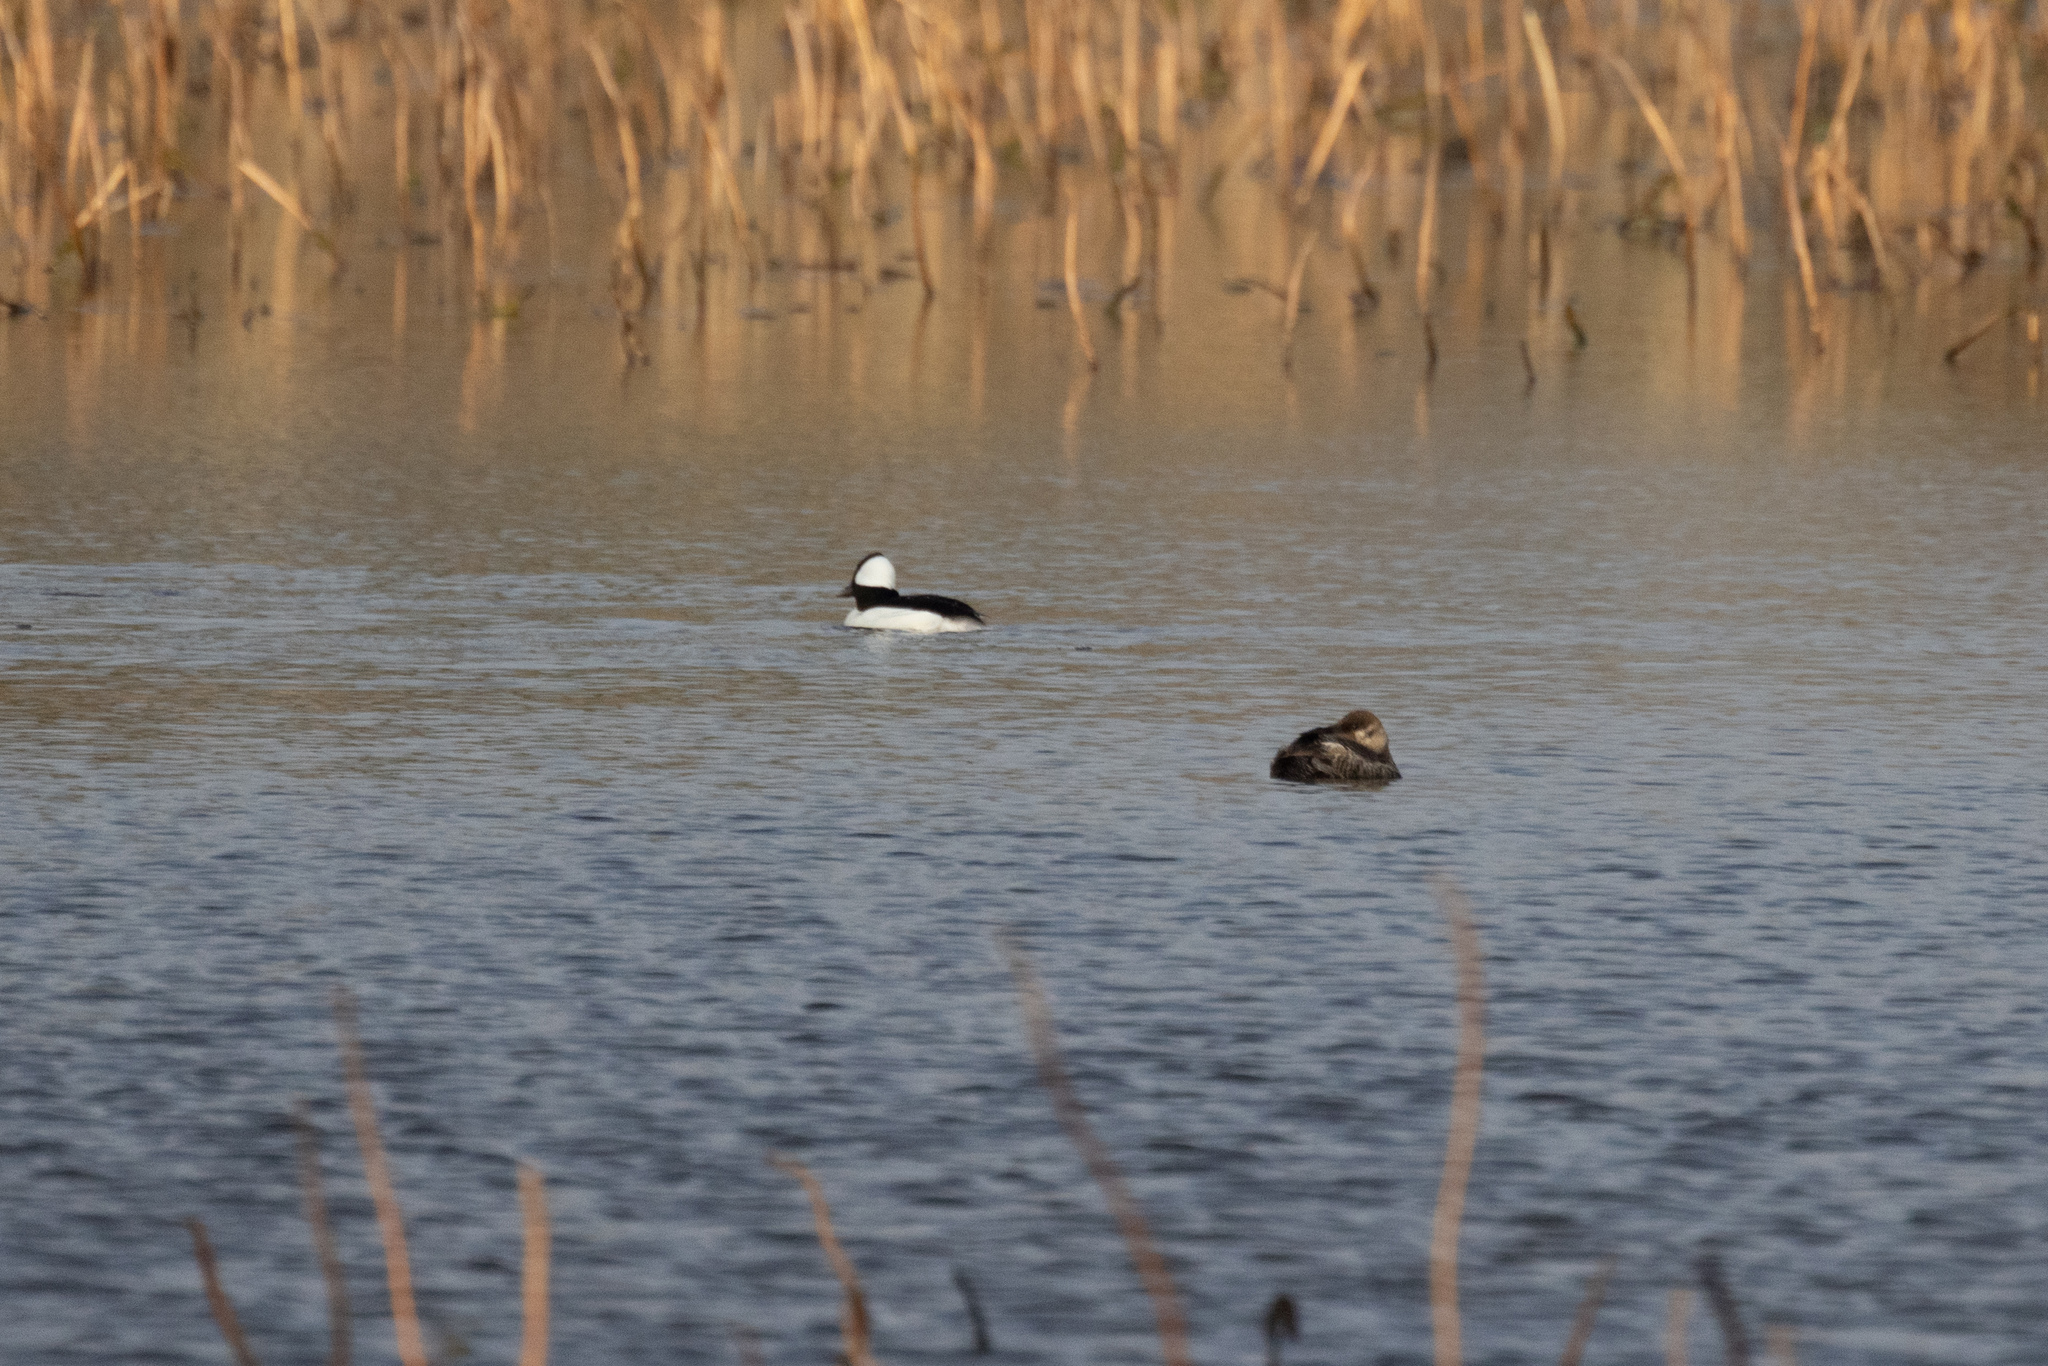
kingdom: Animalia
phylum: Chordata
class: Aves
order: Anseriformes
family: Anatidae
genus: Bucephala
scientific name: Bucephala albeola
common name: Bufflehead
